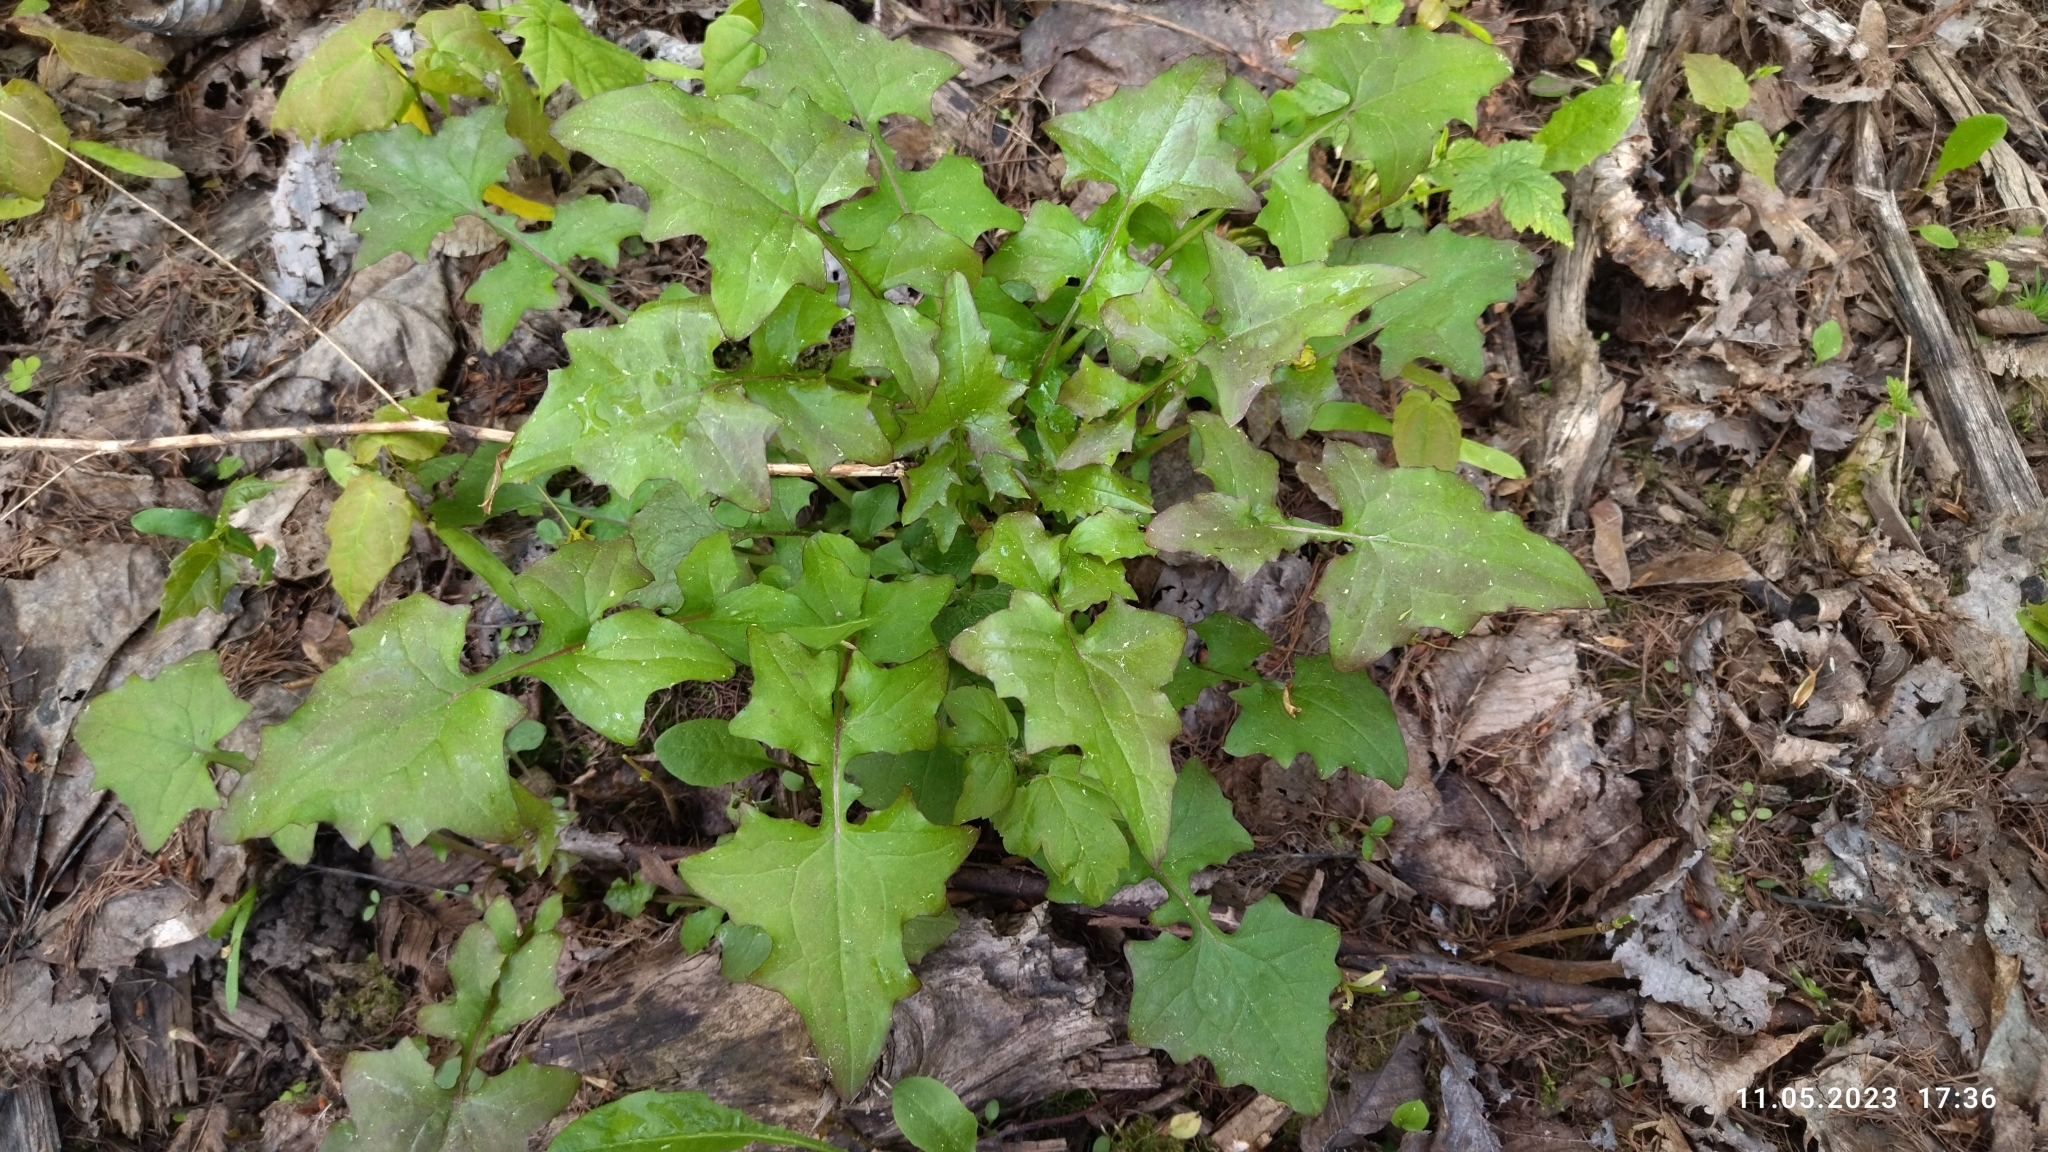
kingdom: Plantae
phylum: Tracheophyta
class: Magnoliopsida
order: Asterales
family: Asteraceae
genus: Mycelis
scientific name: Mycelis muralis
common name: Wall lettuce
